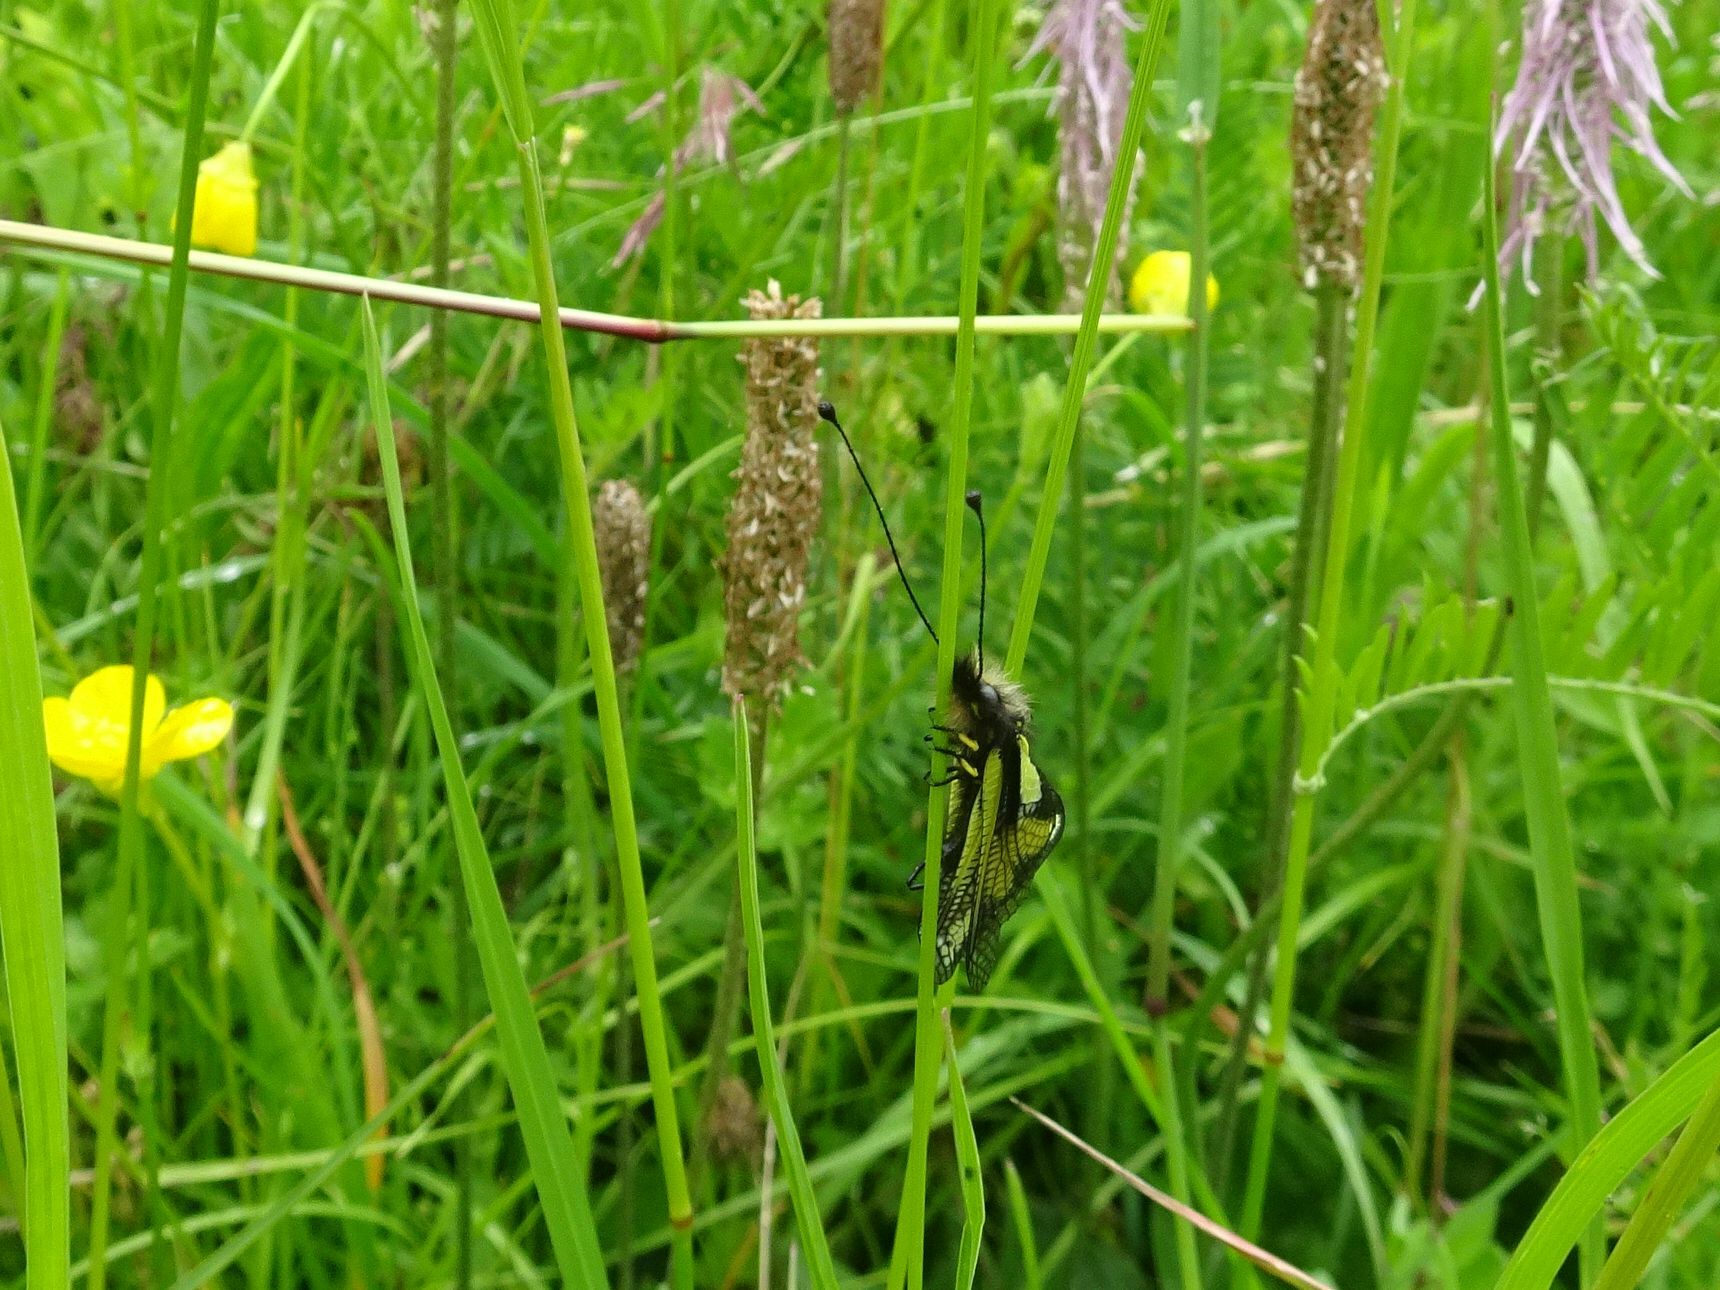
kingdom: Animalia
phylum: Arthropoda
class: Insecta
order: Neuroptera
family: Ascalaphidae
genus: Libelloides
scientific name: Libelloides coccajus
